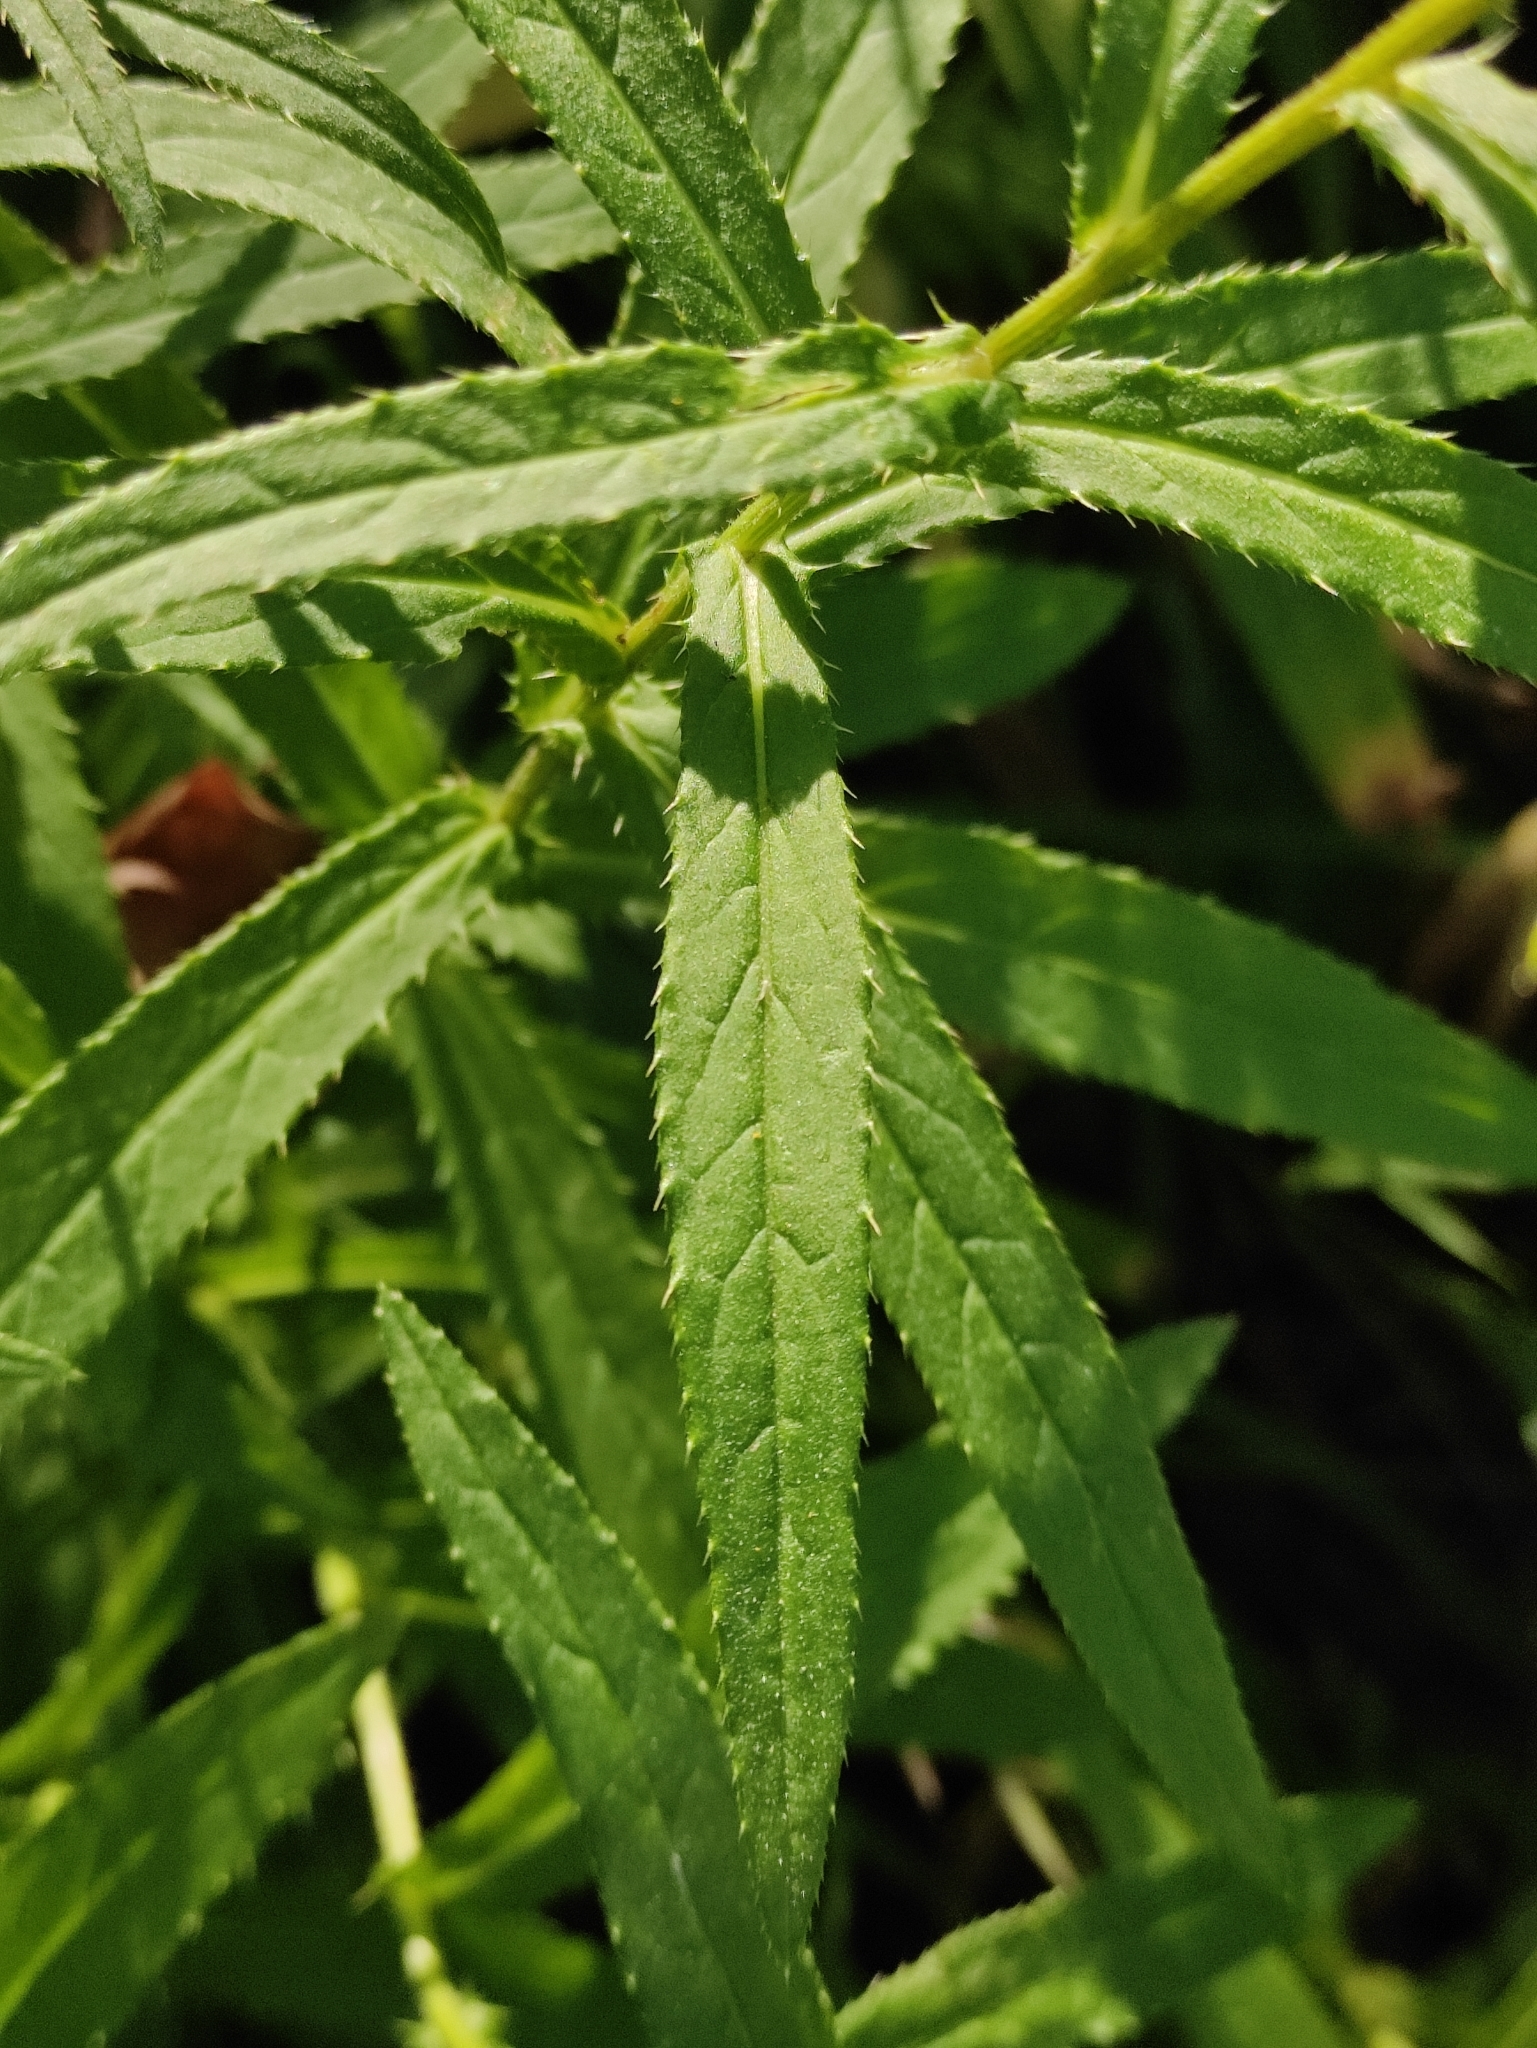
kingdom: Plantae
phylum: Tracheophyta
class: Magnoliopsida
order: Asterales
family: Asteraceae
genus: Cirsium
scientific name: Cirsium serratuloides
